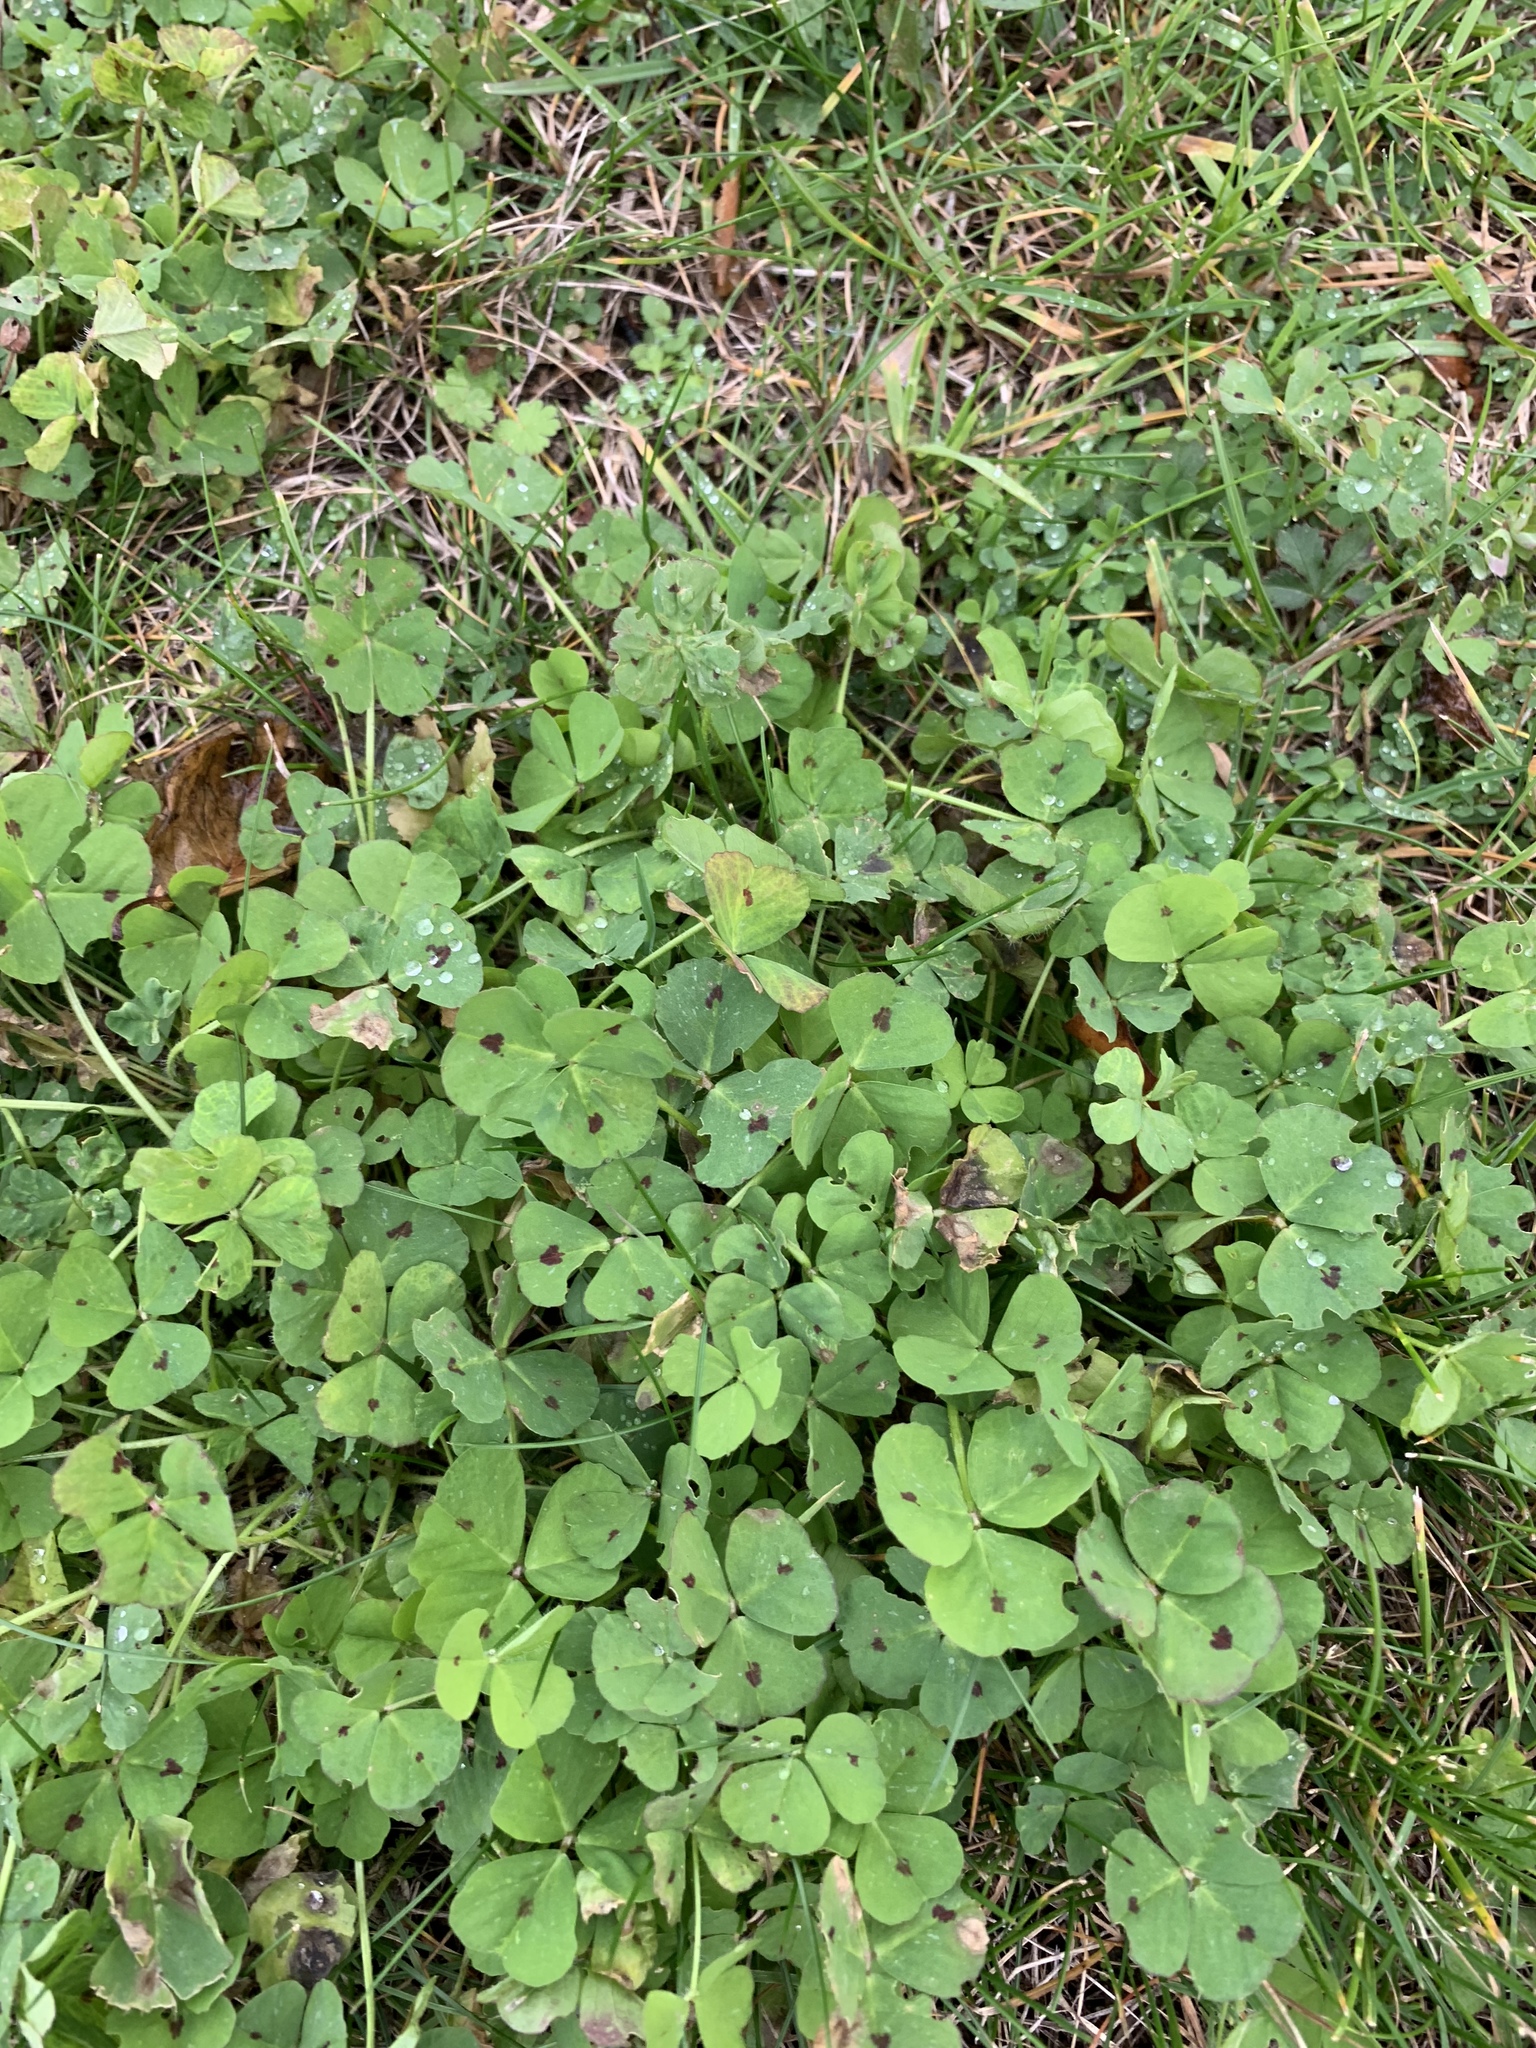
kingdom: Plantae
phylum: Tracheophyta
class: Magnoliopsida
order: Fabales
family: Fabaceae
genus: Medicago
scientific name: Medicago arabica
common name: Spotted medick
